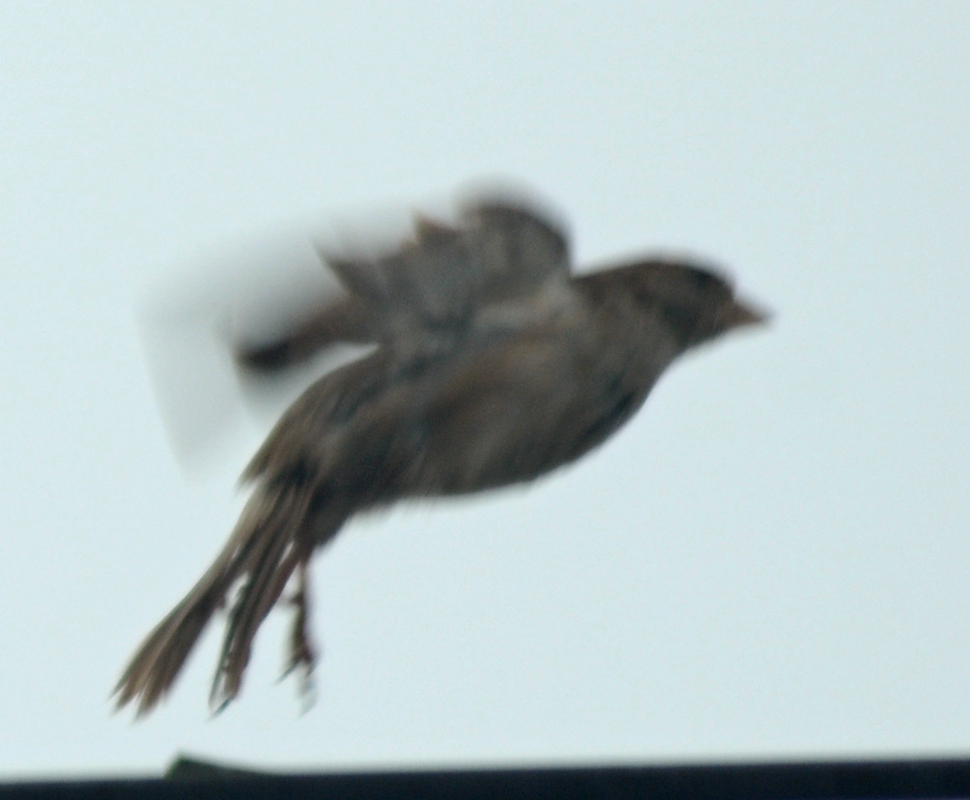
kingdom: Animalia
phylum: Chordata
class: Aves
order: Passeriformes
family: Passeridae
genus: Passer
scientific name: Passer domesticus
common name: House sparrow
